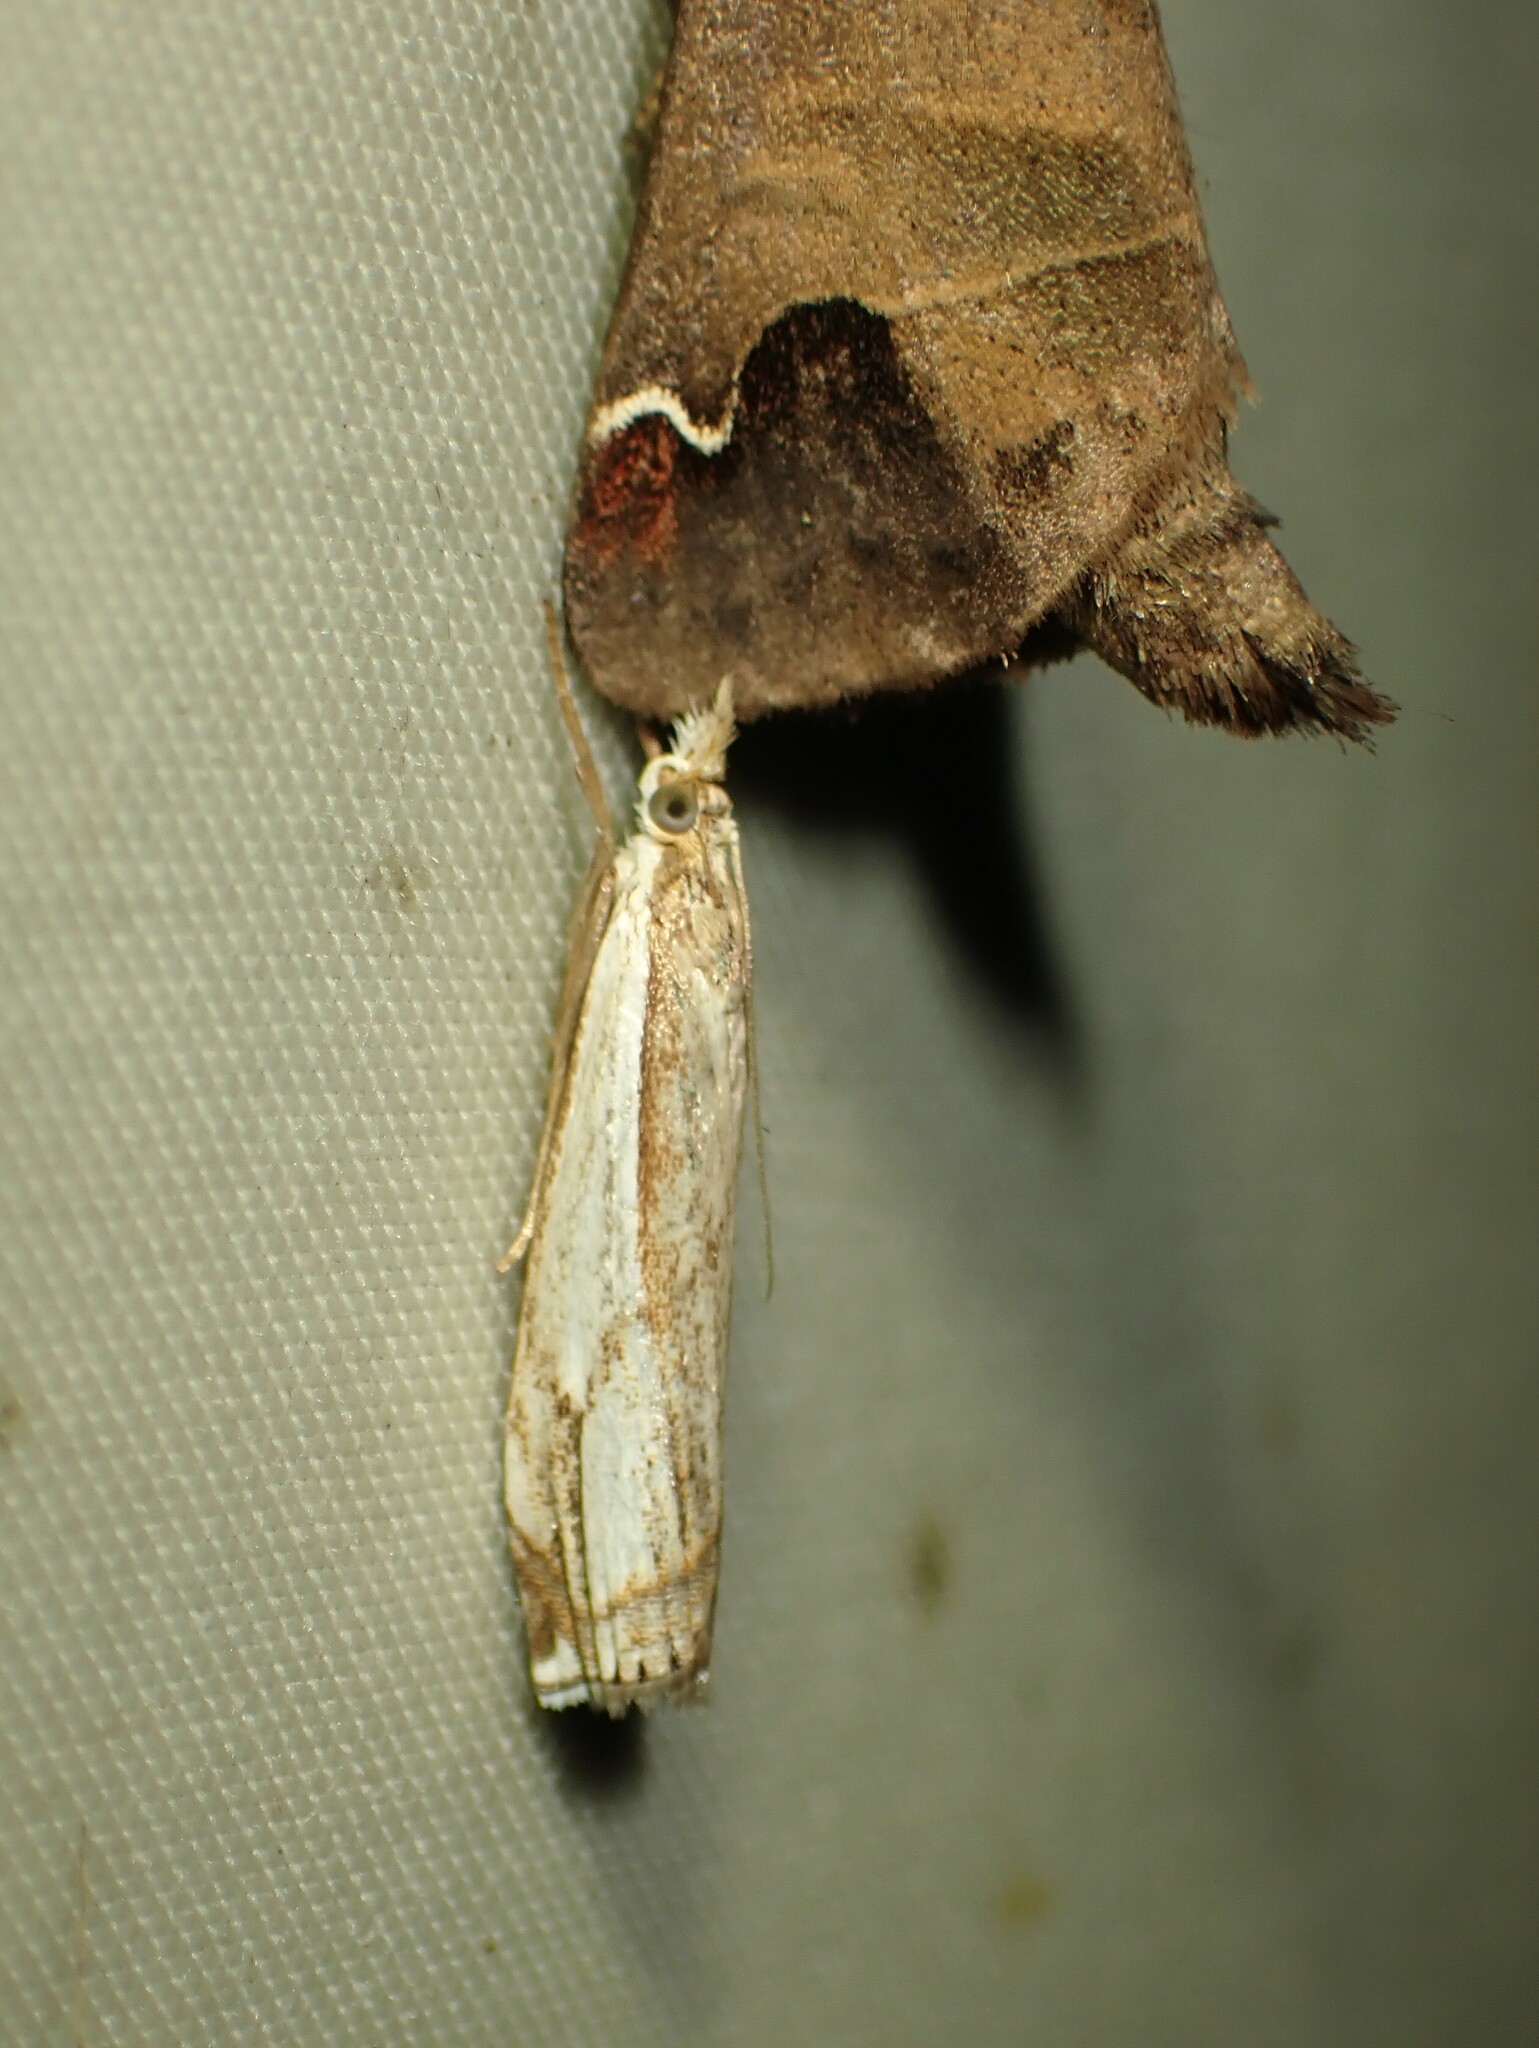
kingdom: Animalia
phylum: Arthropoda
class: Insecta
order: Lepidoptera
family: Crambidae
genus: Crambus
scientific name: Crambus agitatellus
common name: Double-banded grass-veneer
